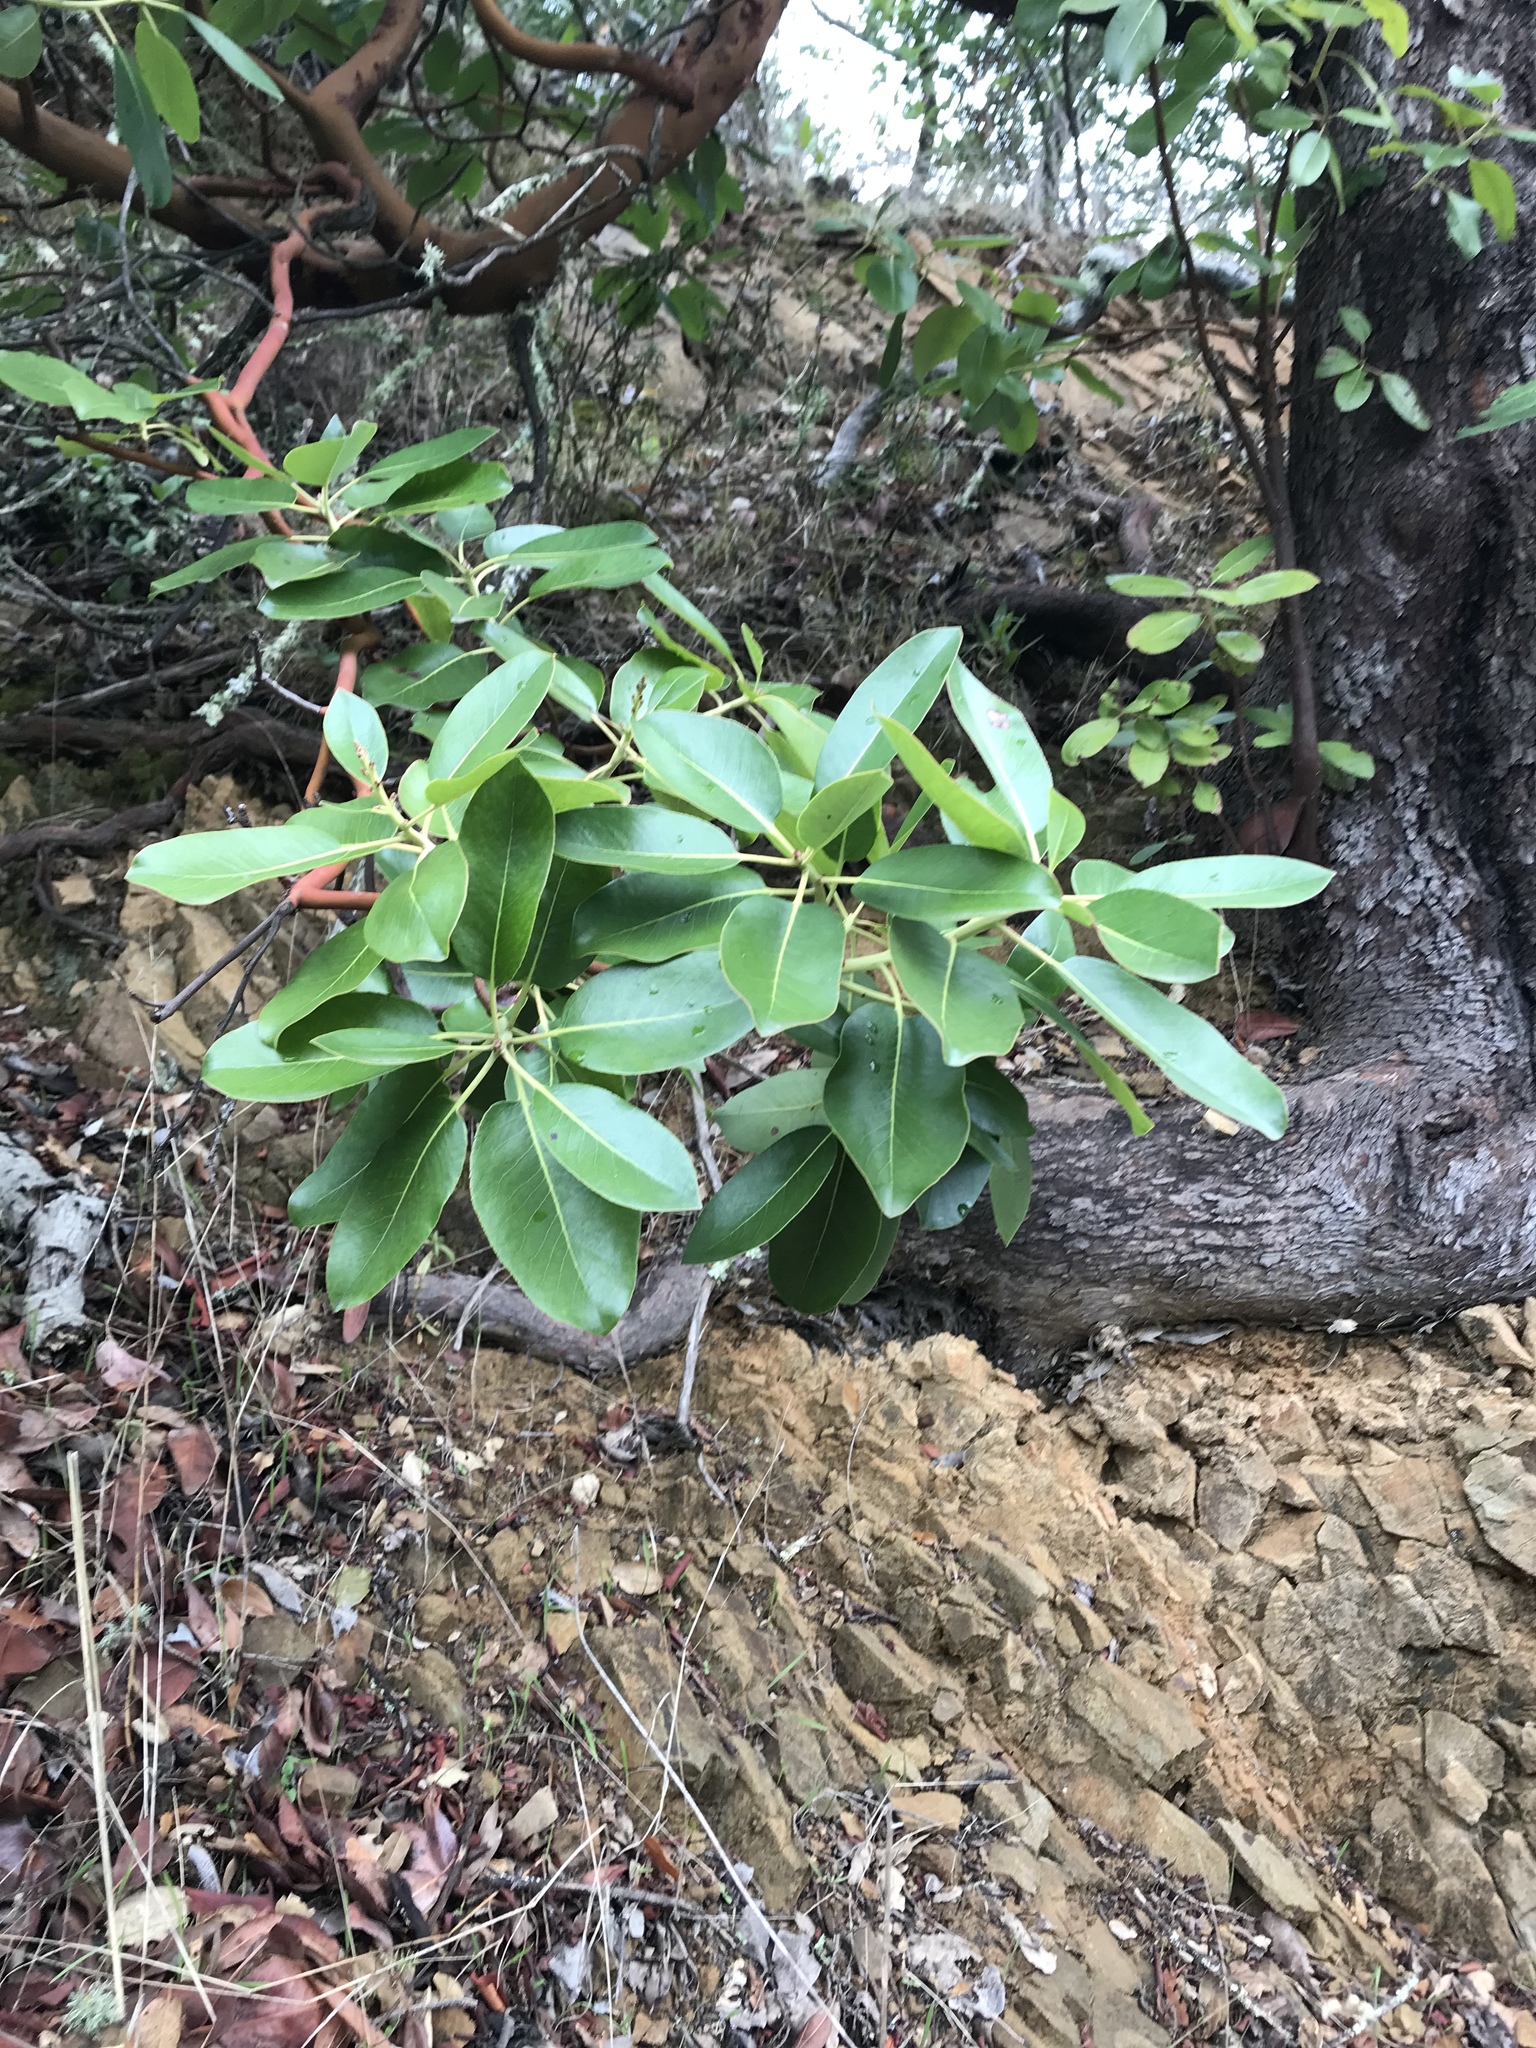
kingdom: Plantae
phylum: Tracheophyta
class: Magnoliopsida
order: Ericales
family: Ericaceae
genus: Arbutus
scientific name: Arbutus menziesii
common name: Pacific madrone
